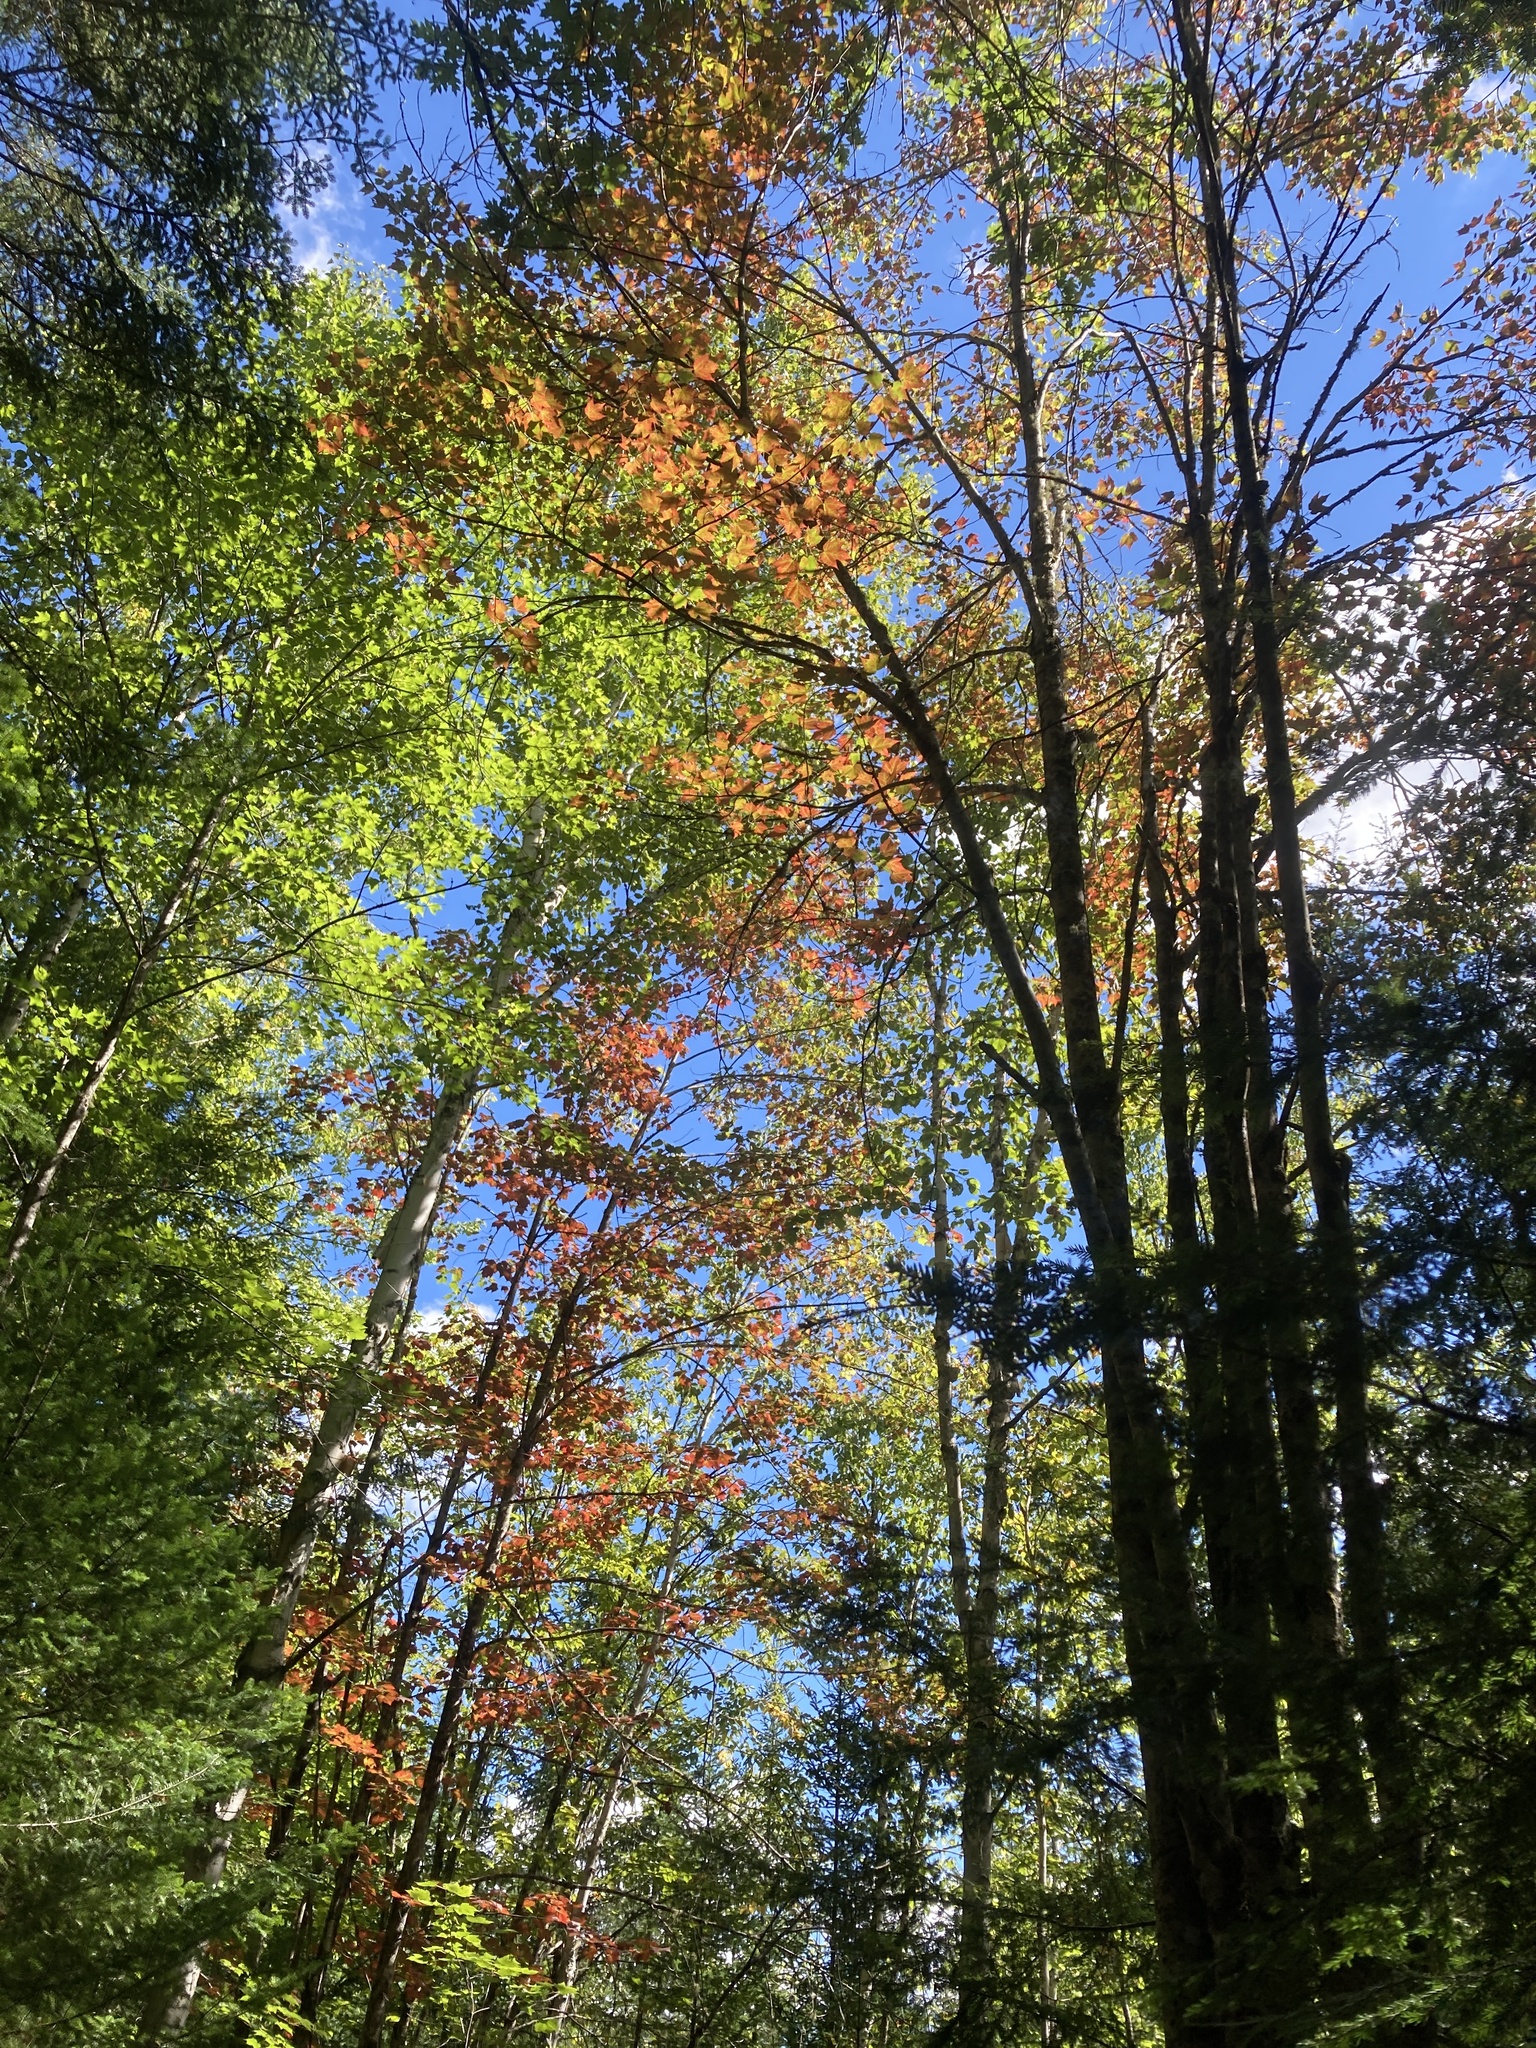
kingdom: Plantae
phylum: Tracheophyta
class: Magnoliopsida
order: Sapindales
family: Sapindaceae
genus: Acer
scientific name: Acer rubrum
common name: Red maple
